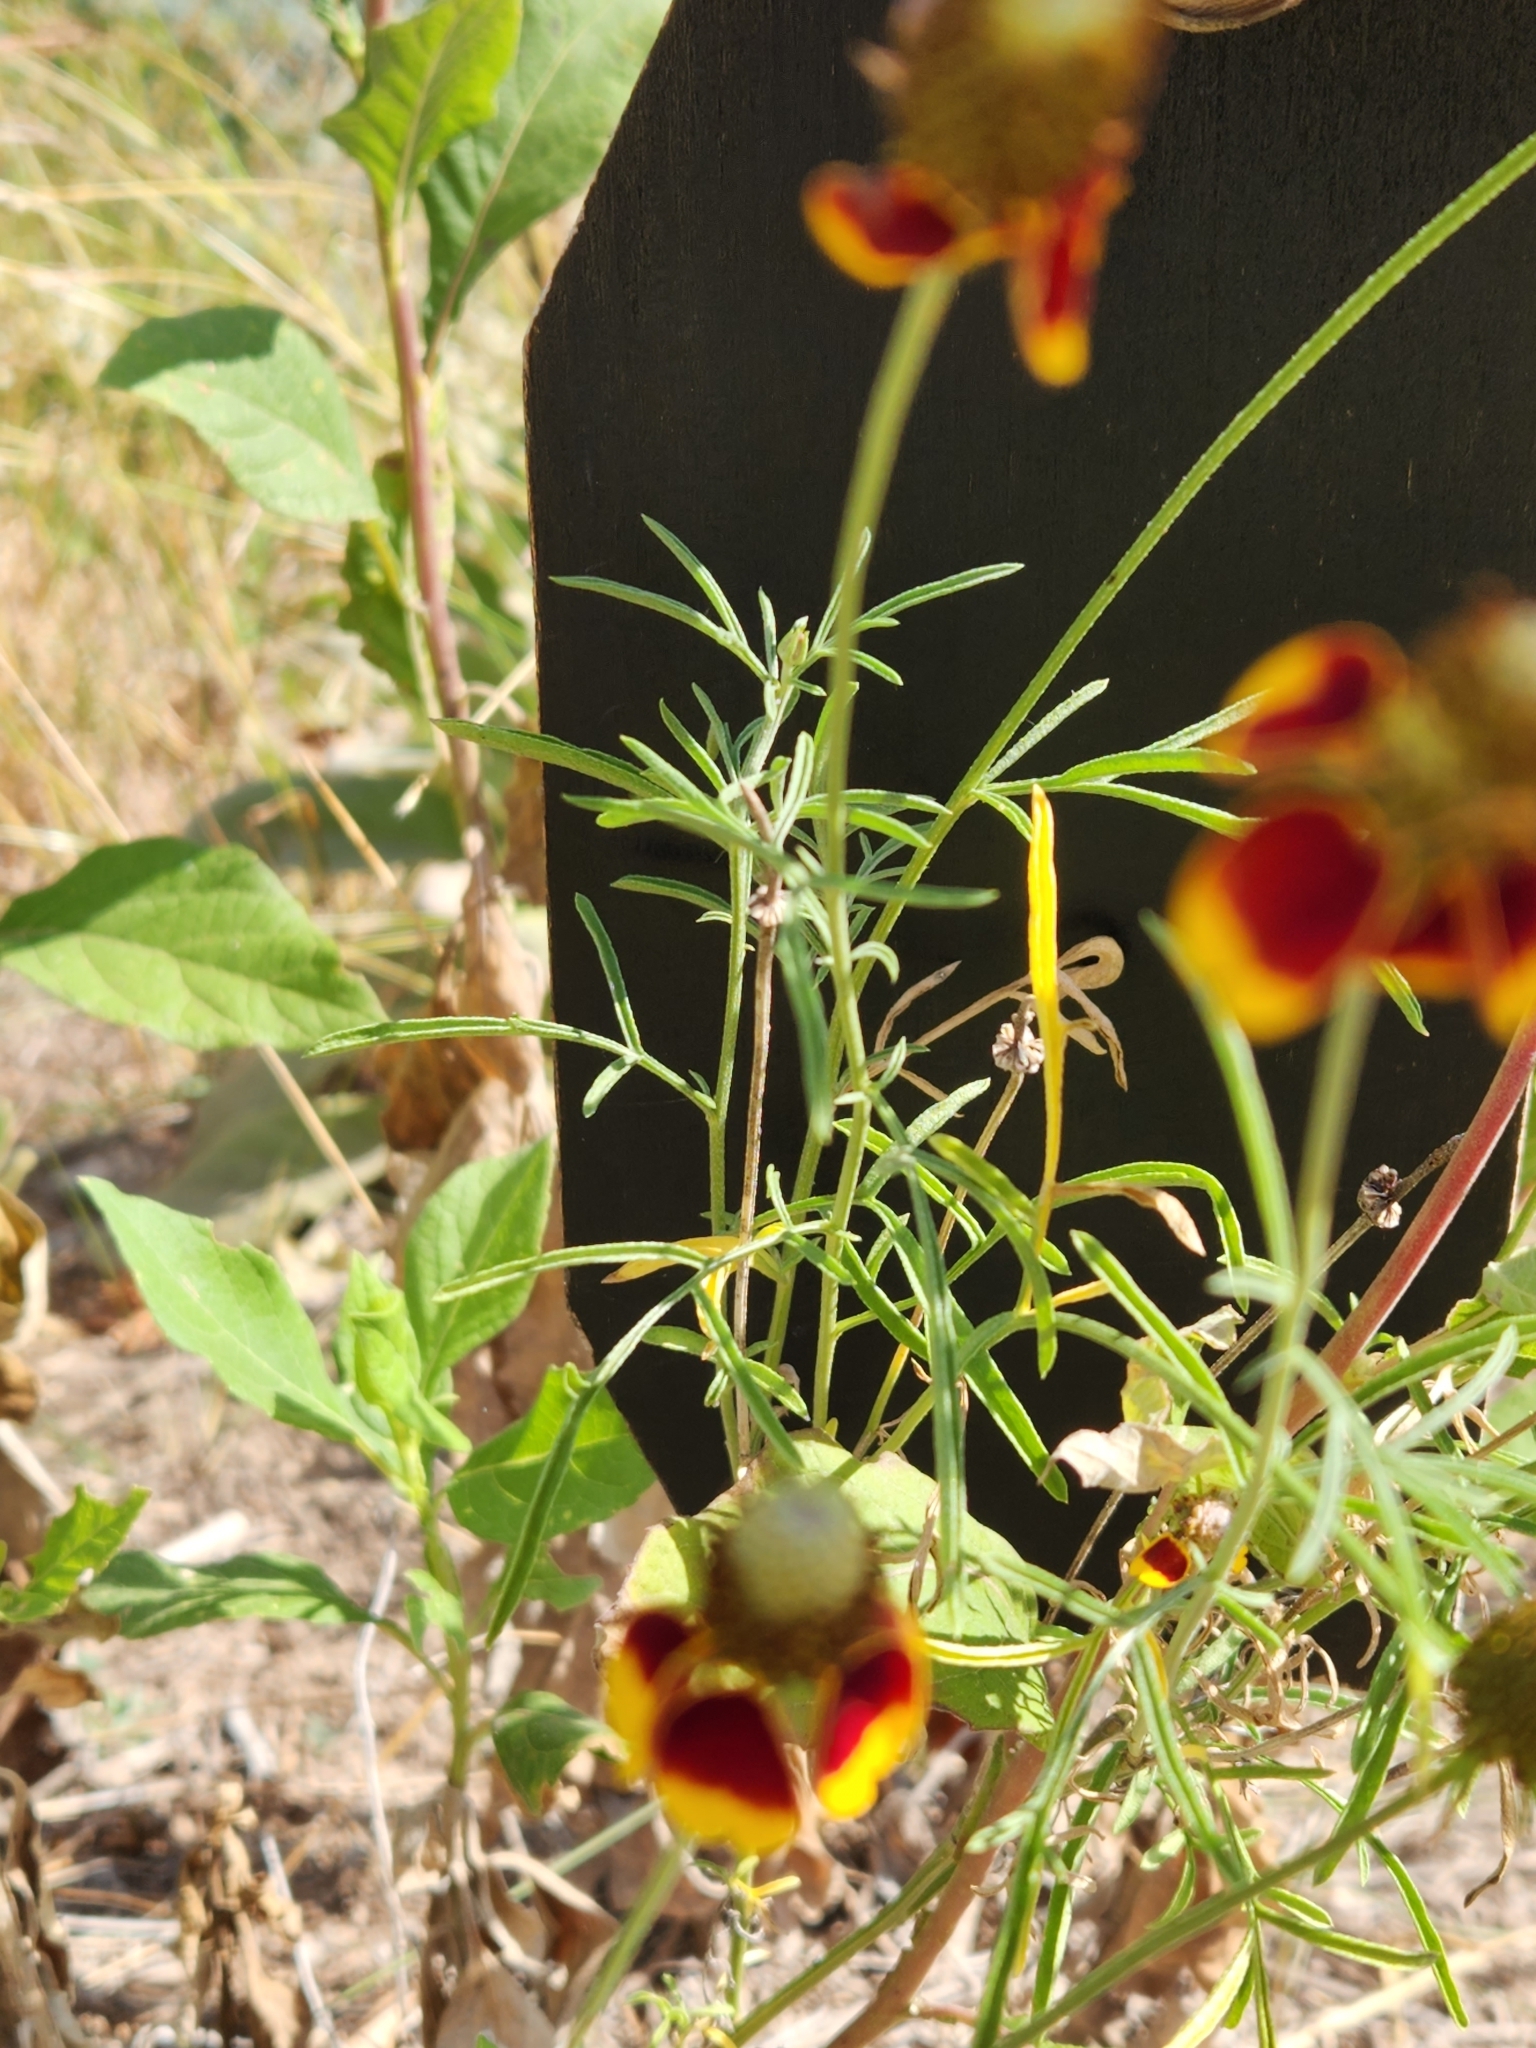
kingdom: Plantae
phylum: Tracheophyta
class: Magnoliopsida
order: Asterales
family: Asteraceae
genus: Ratibida
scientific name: Ratibida columnifera
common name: Prairie coneflower
